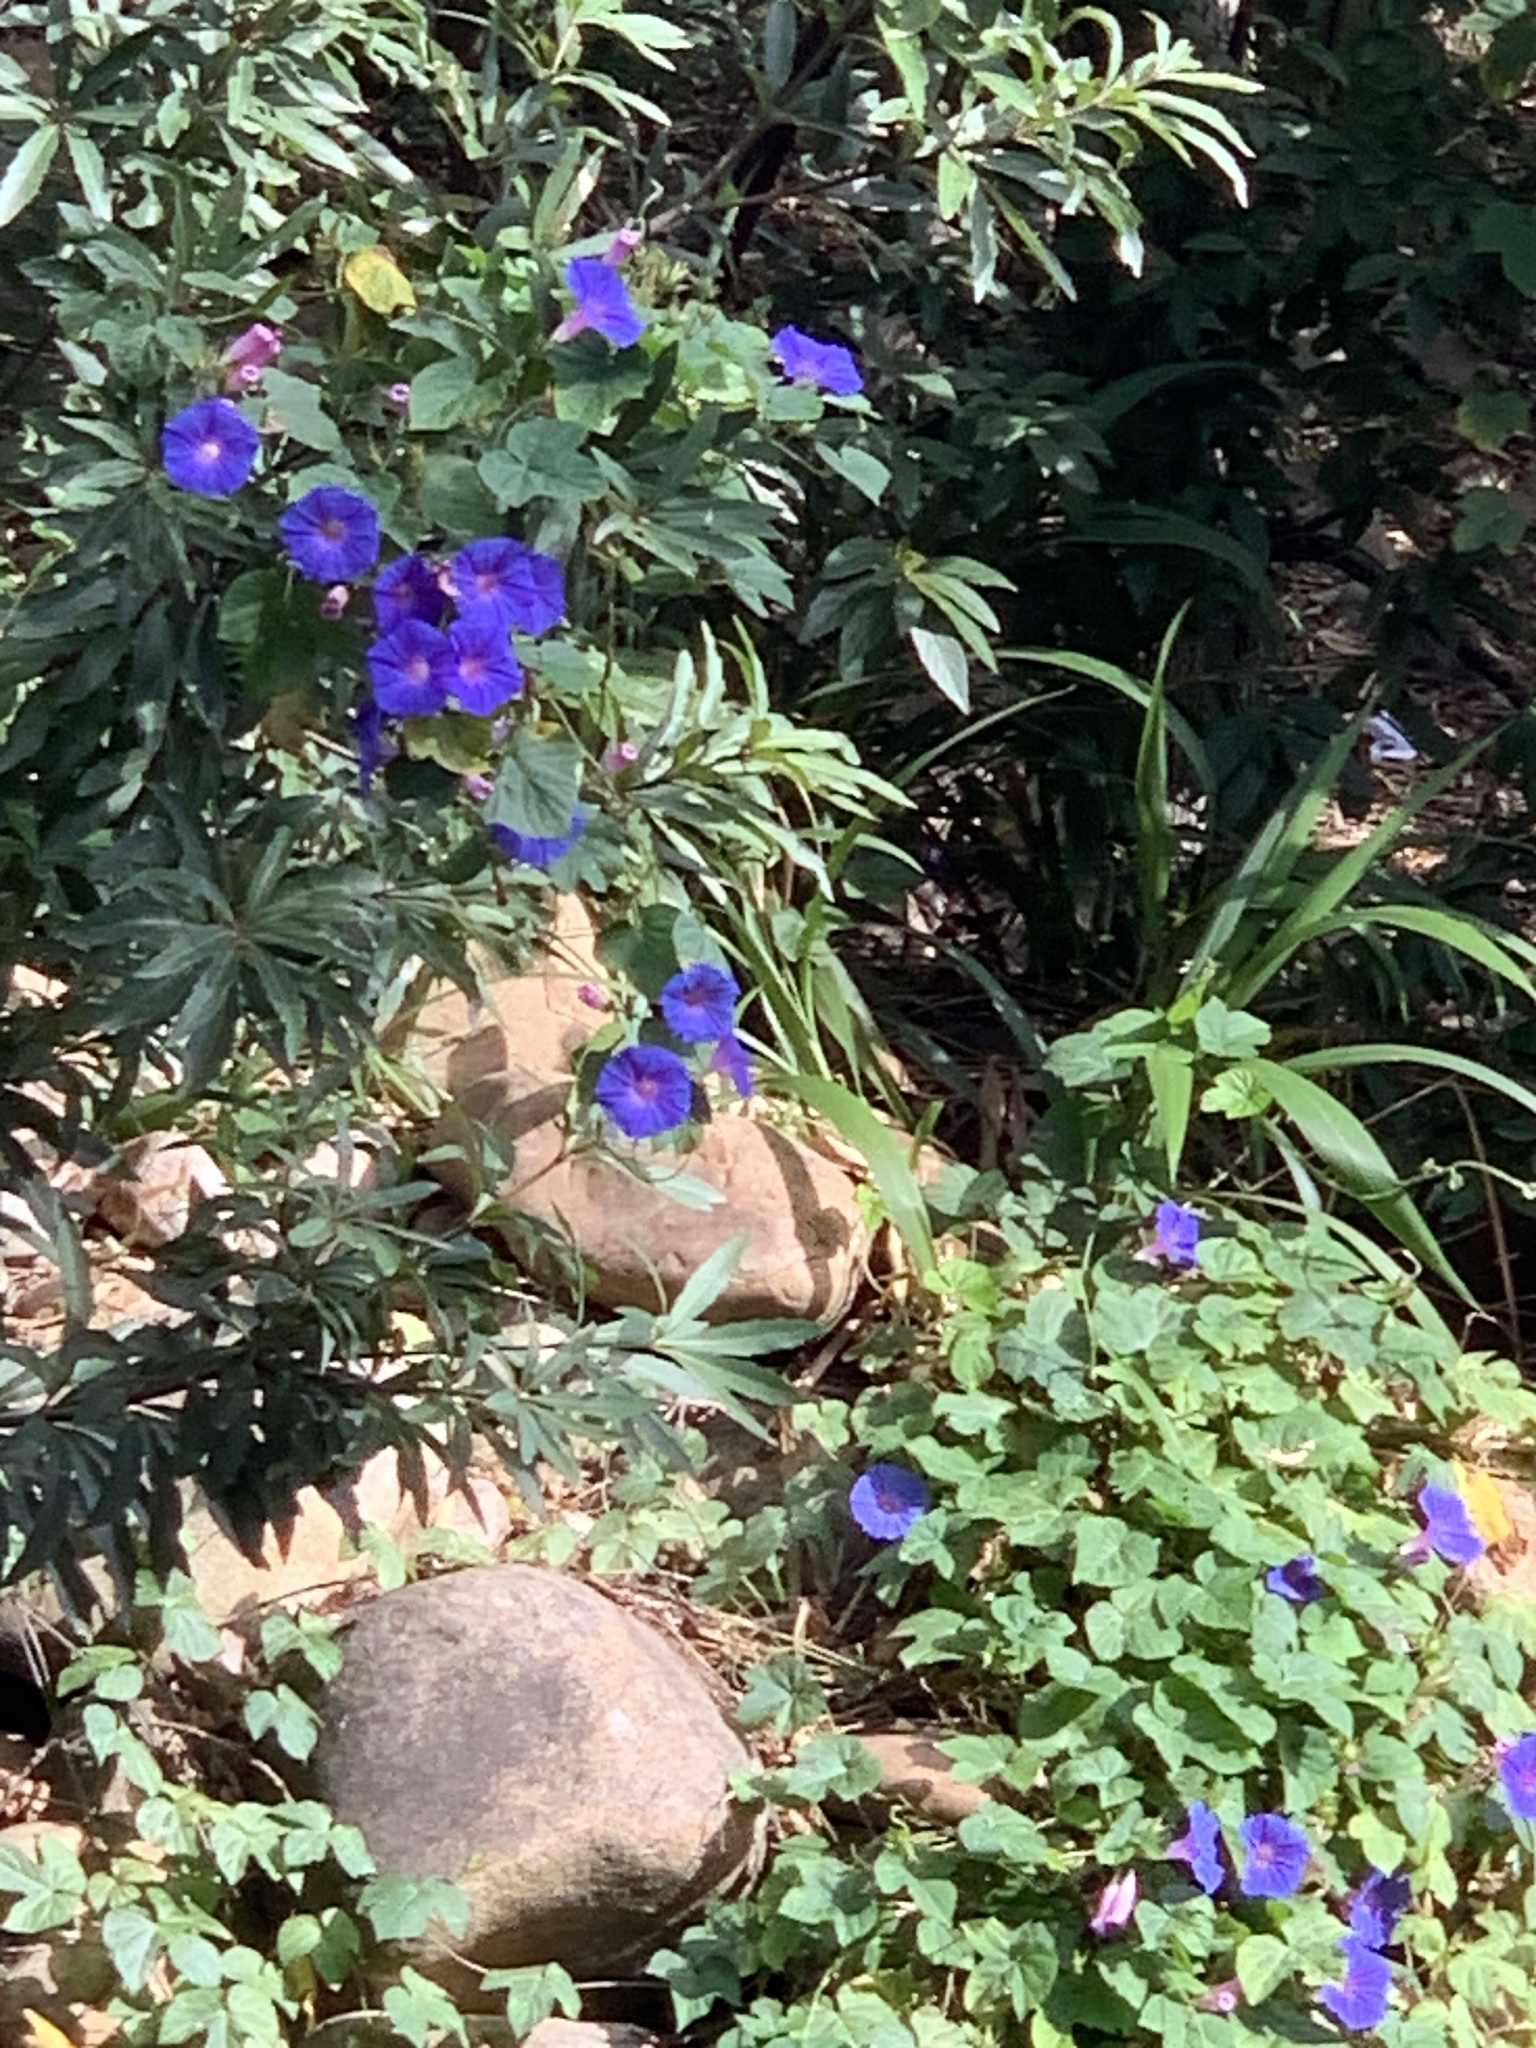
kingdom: Plantae
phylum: Tracheophyta
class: Magnoliopsida
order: Solanales
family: Convolvulaceae
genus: Ipomoea
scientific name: Ipomoea indica
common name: Blue dawnflower
